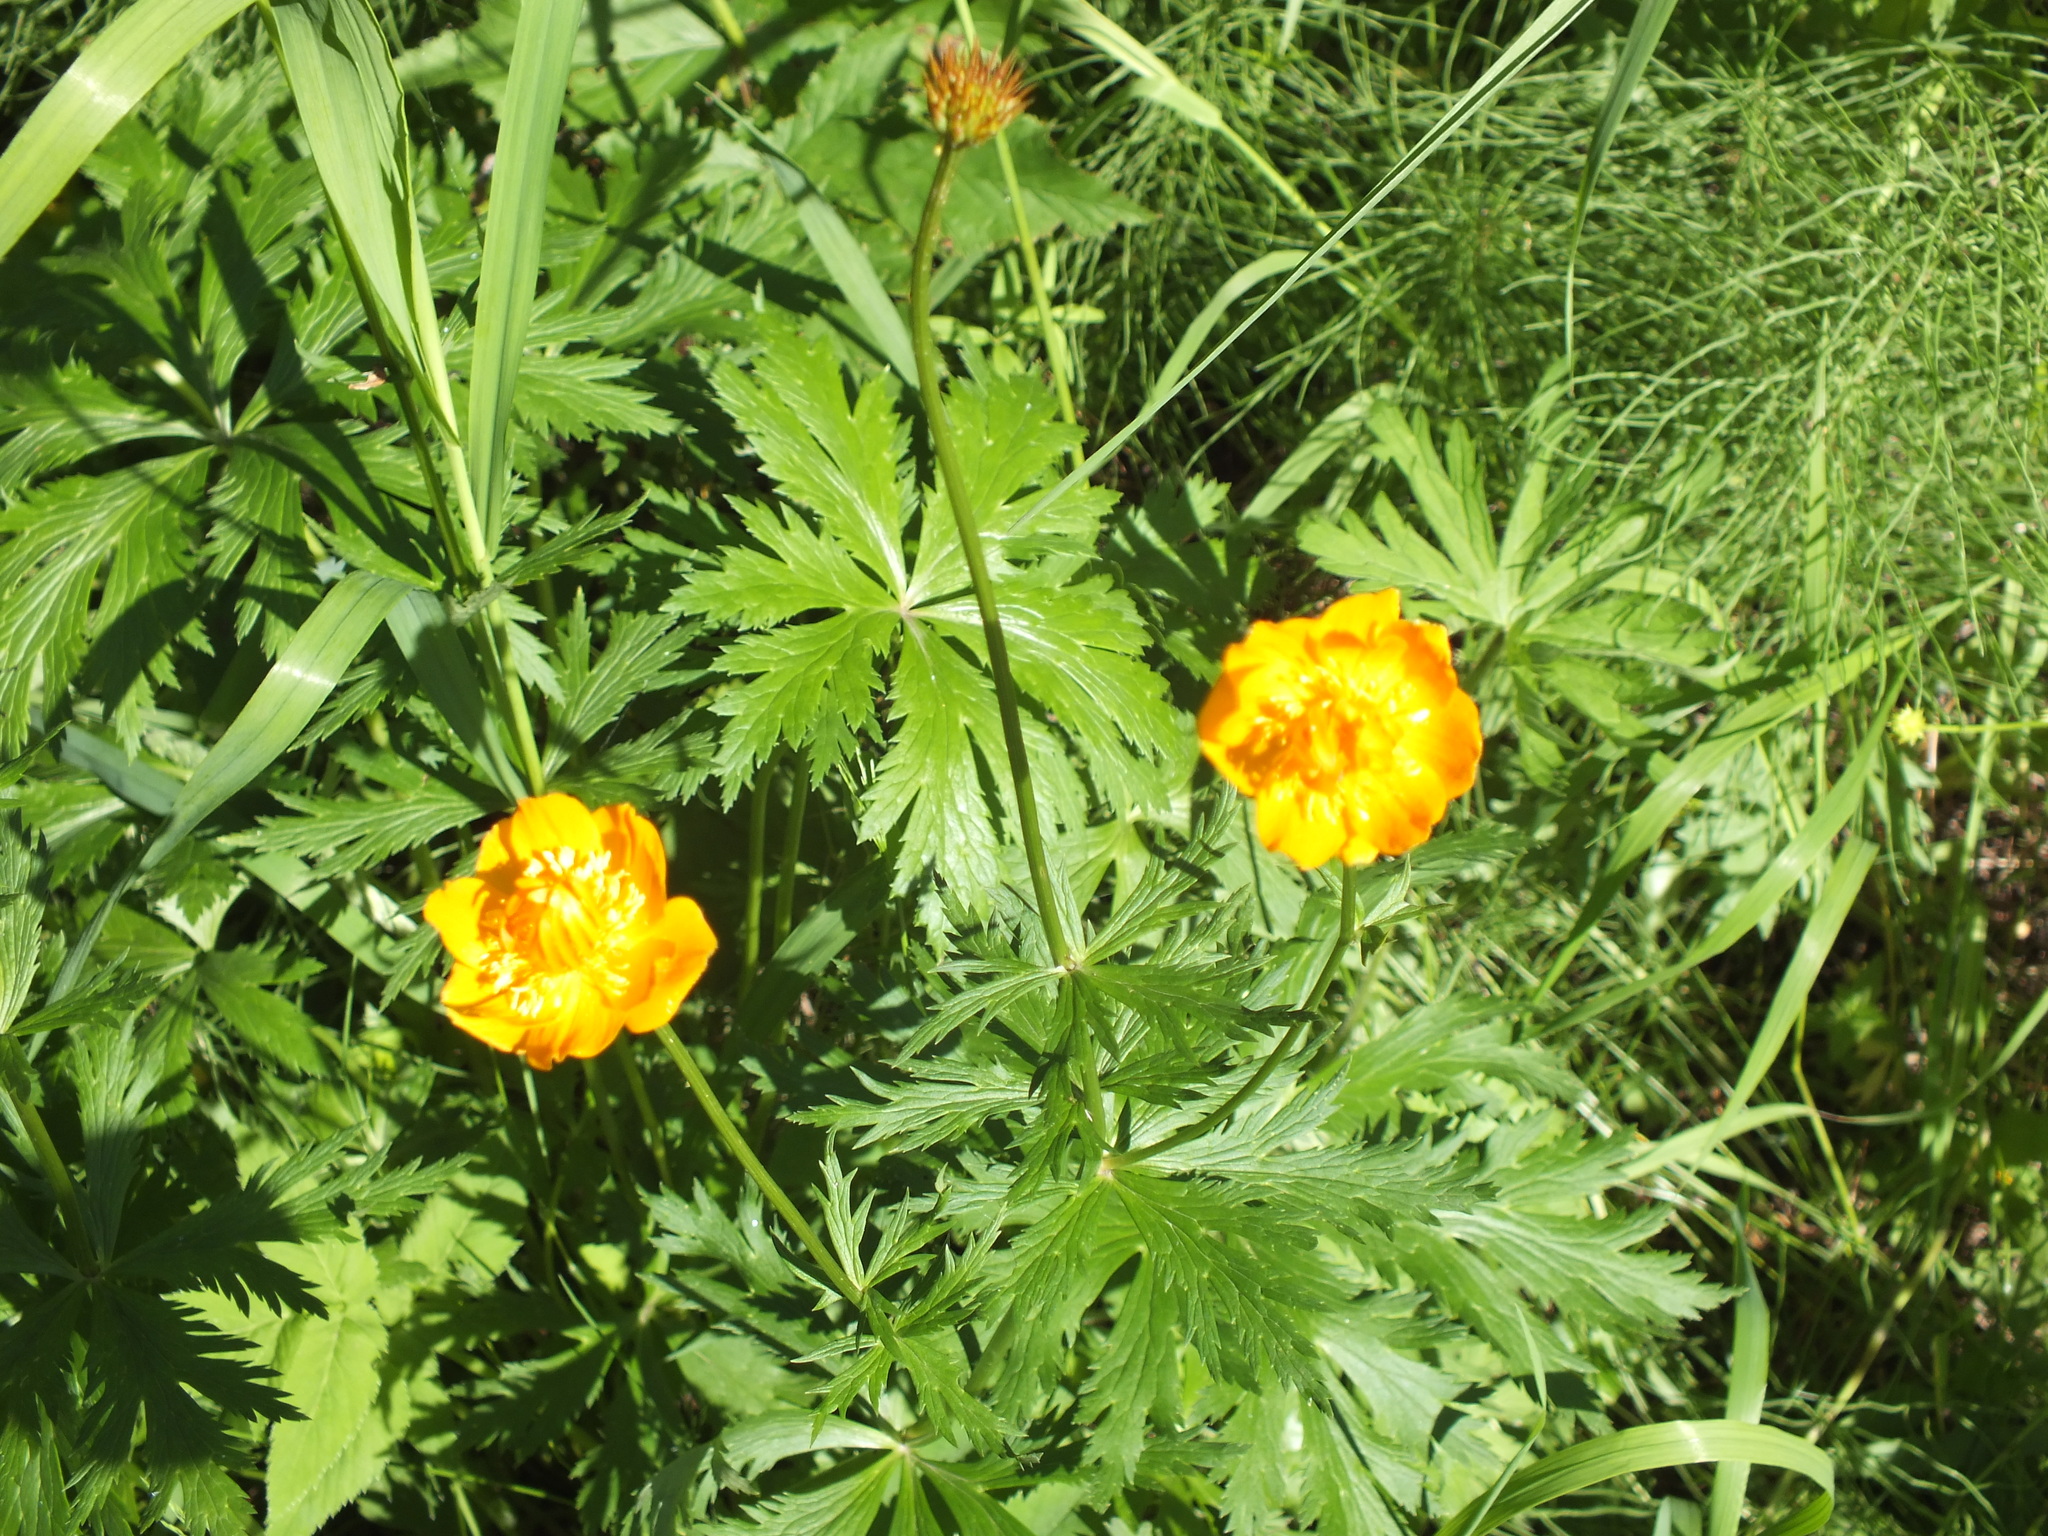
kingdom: Plantae
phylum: Tracheophyta
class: Magnoliopsida
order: Ranunculales
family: Ranunculaceae
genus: Trollius
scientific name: Trollius asiaticus
